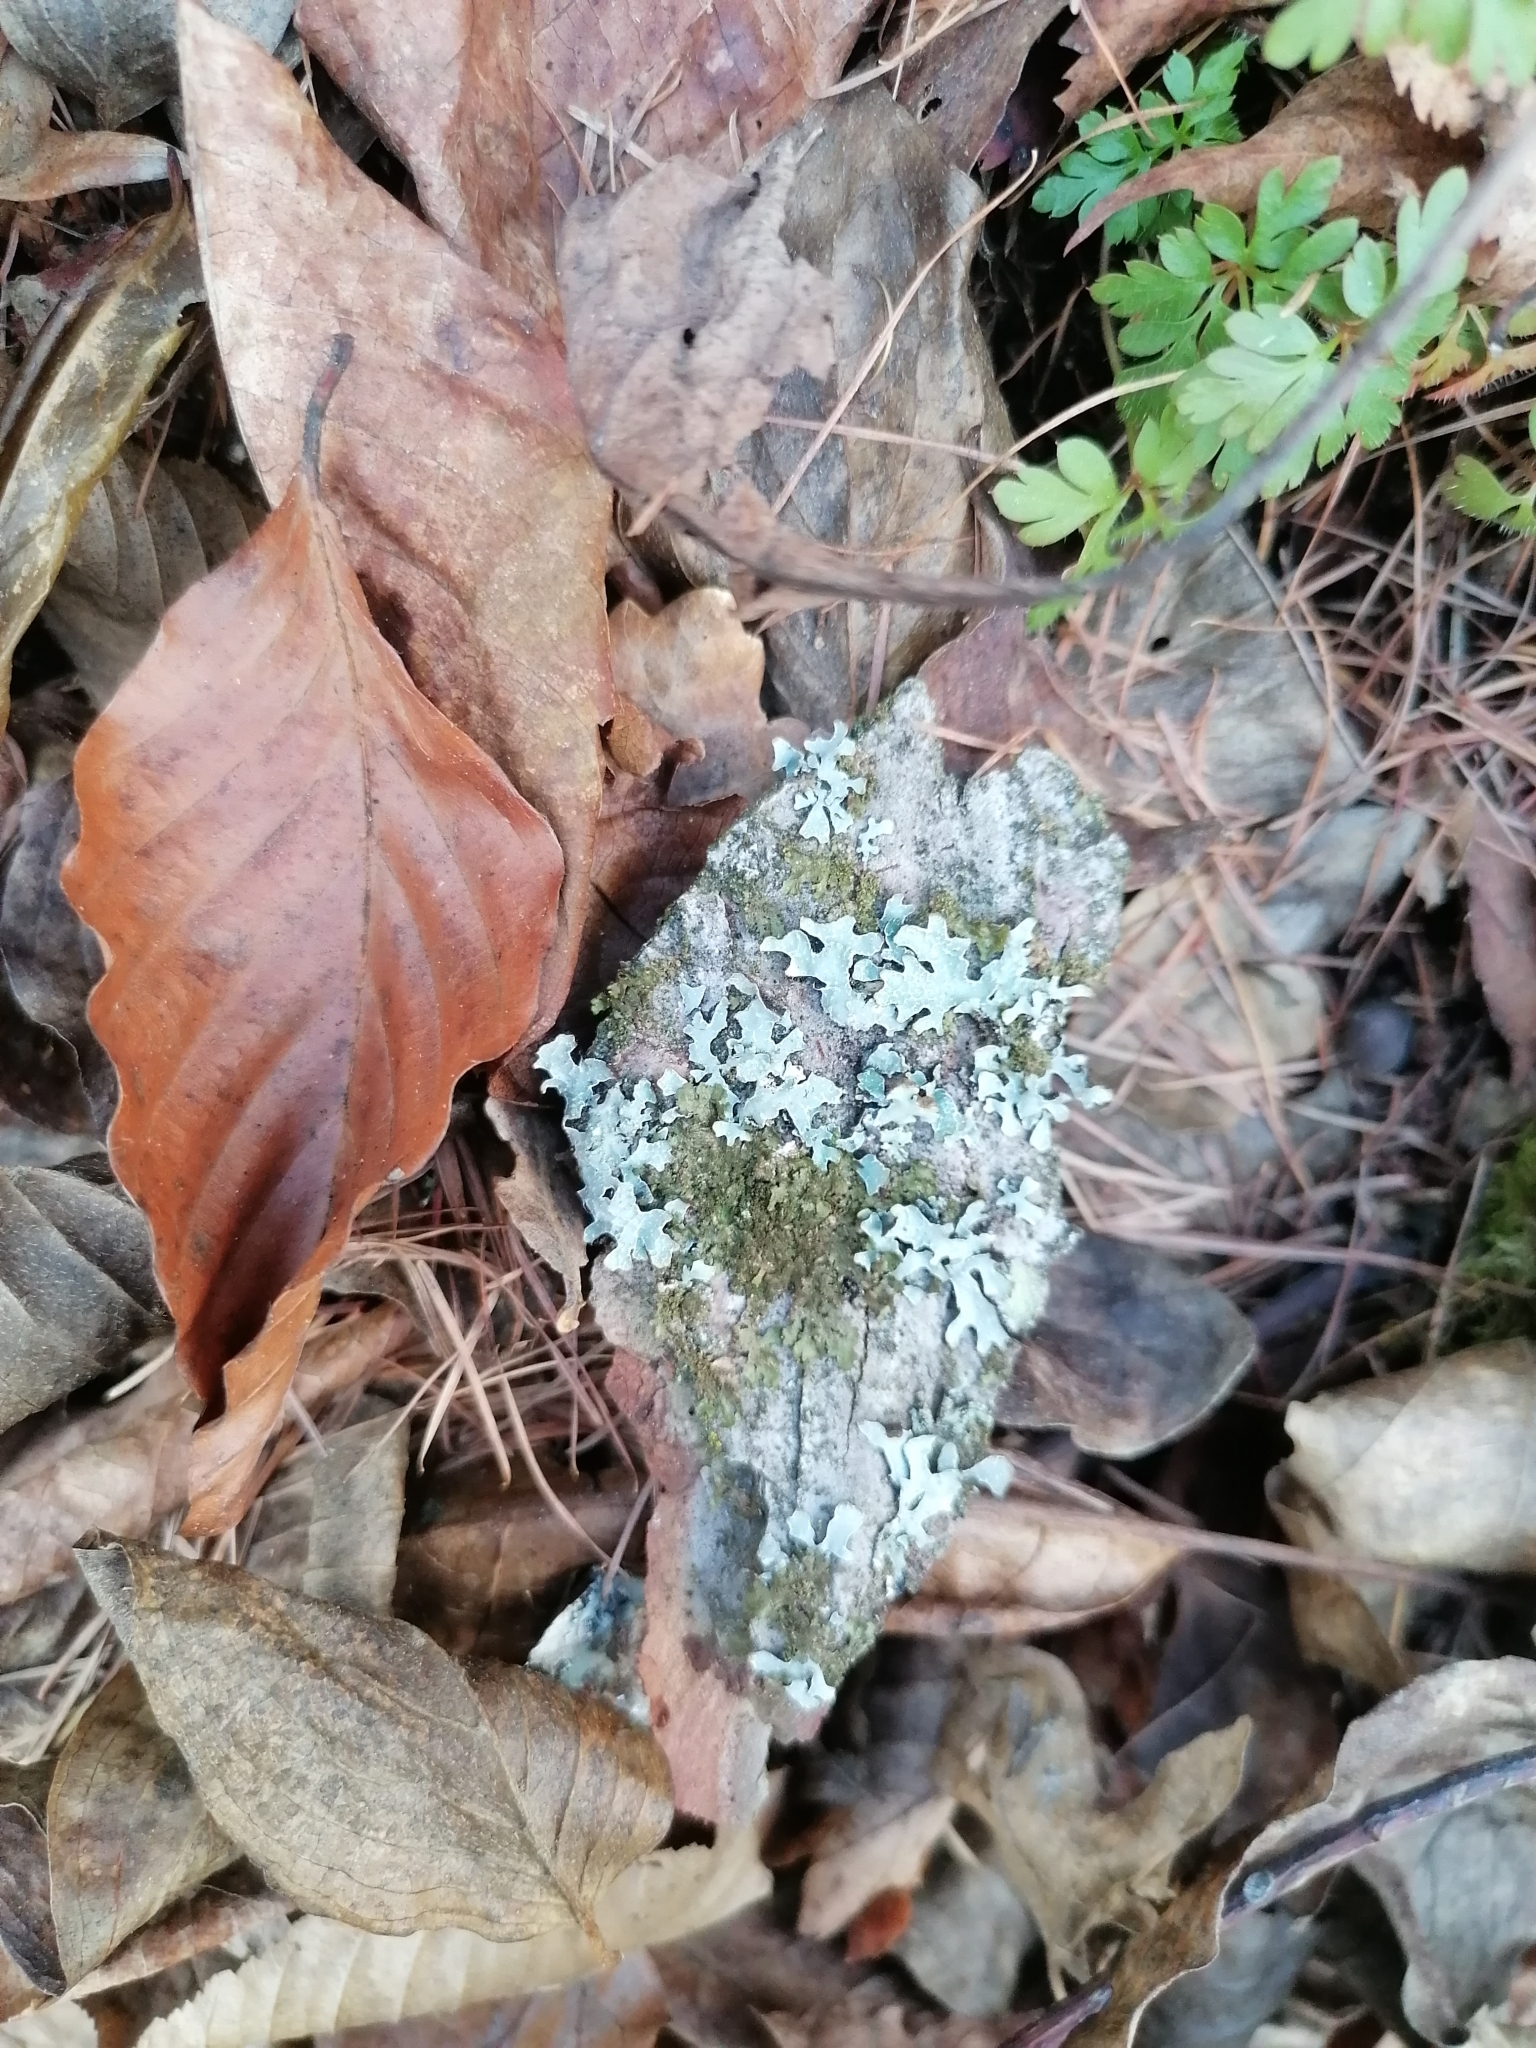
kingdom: Fungi
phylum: Ascomycota
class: Lecanoromycetes
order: Lecanorales
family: Parmeliaceae
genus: Parmelia
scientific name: Parmelia sulcata
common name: Netted shield lichen
